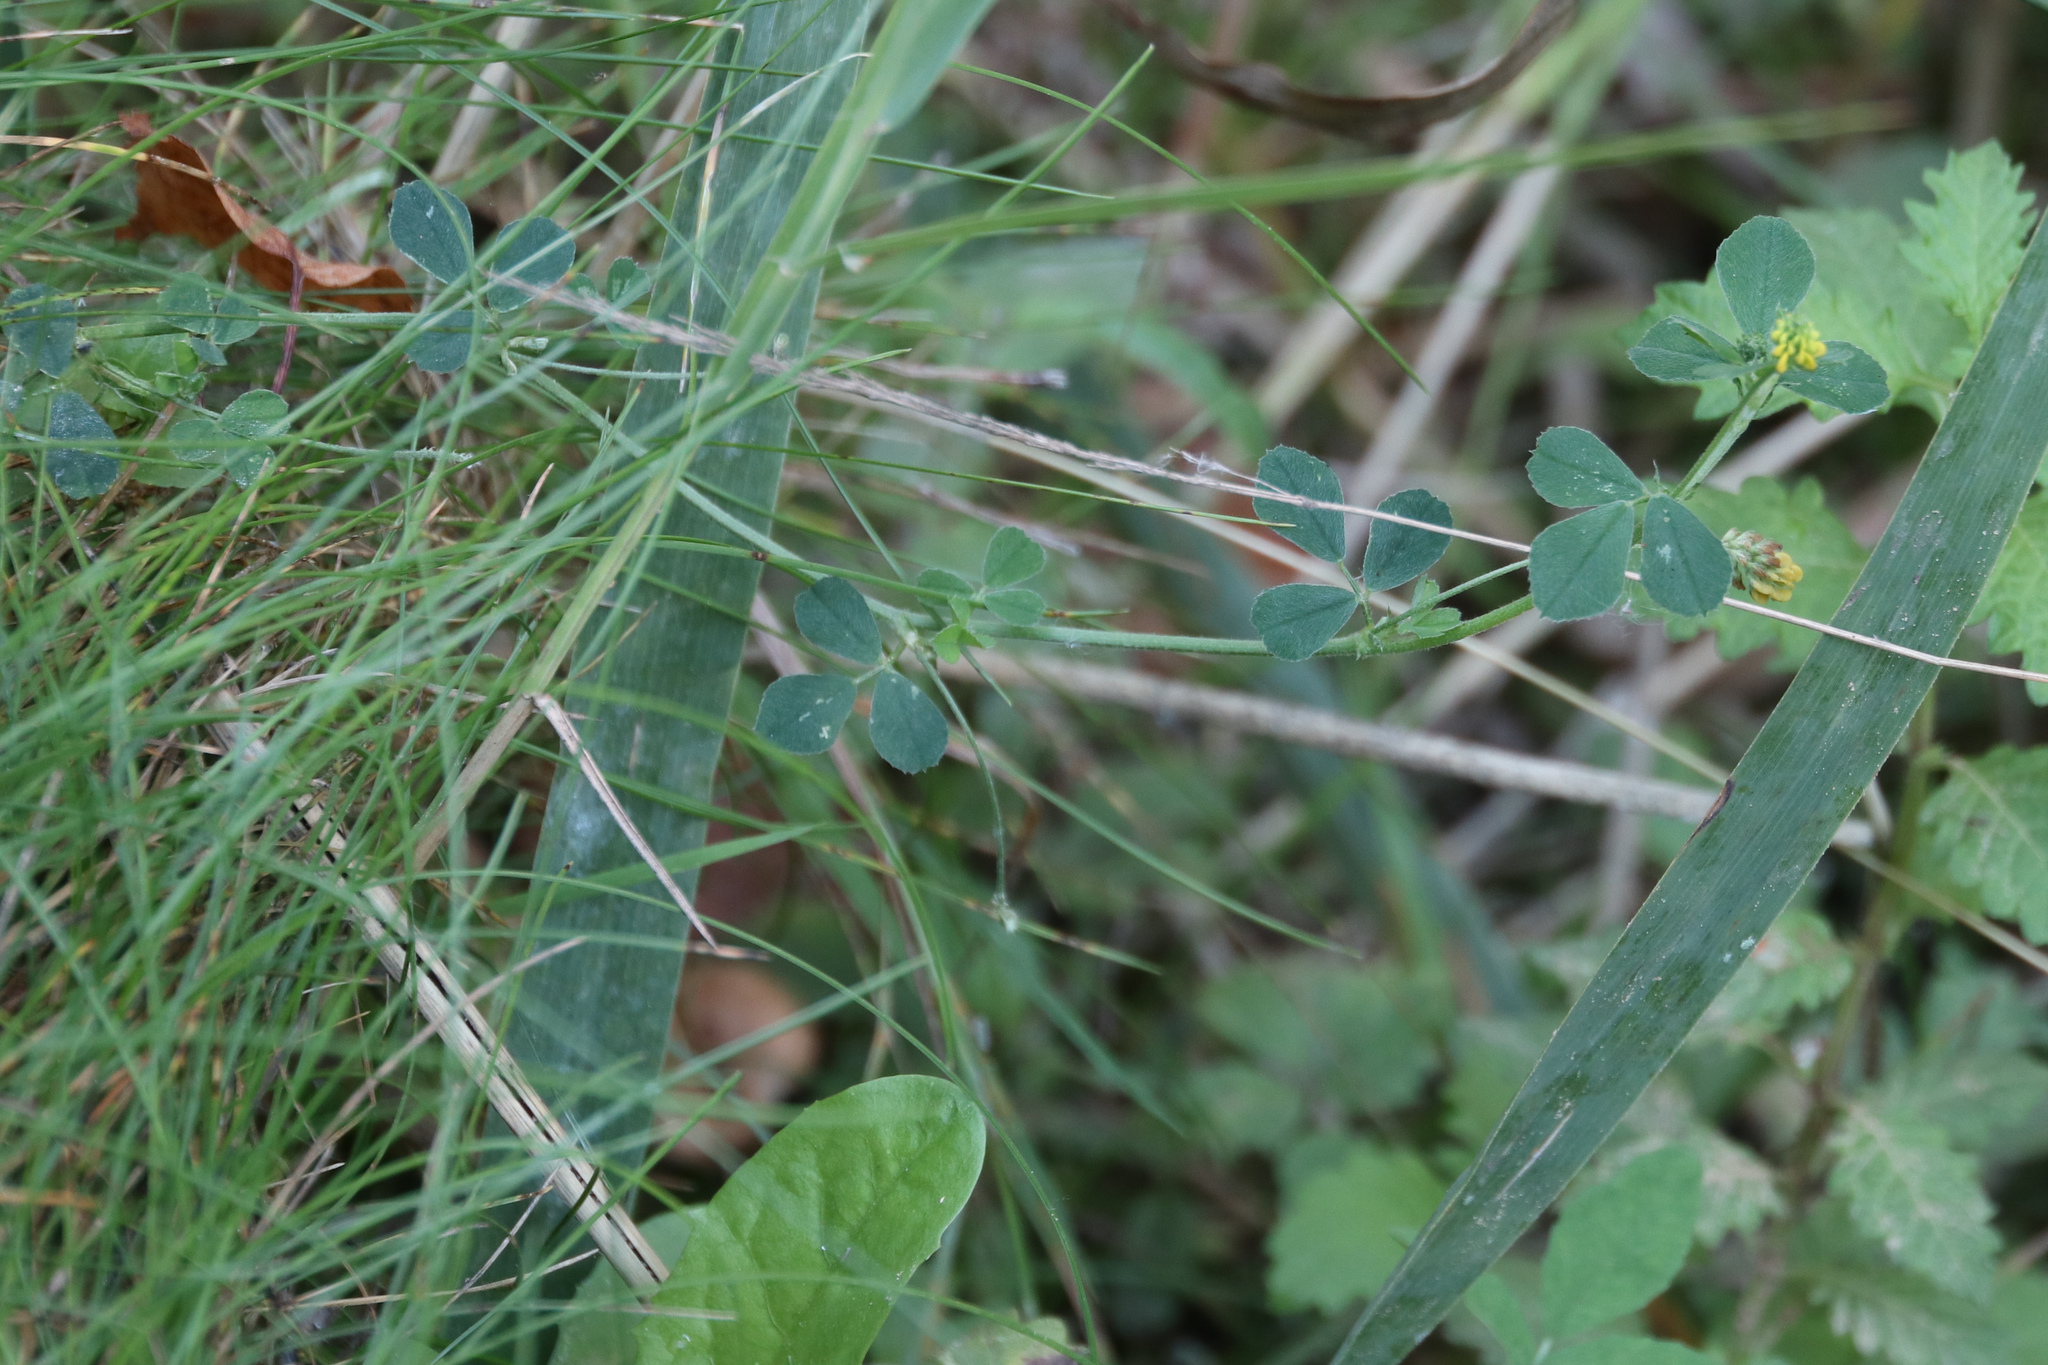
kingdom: Plantae
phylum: Tracheophyta
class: Magnoliopsida
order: Fabales
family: Fabaceae
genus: Medicago
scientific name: Medicago lupulina
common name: Black medick
